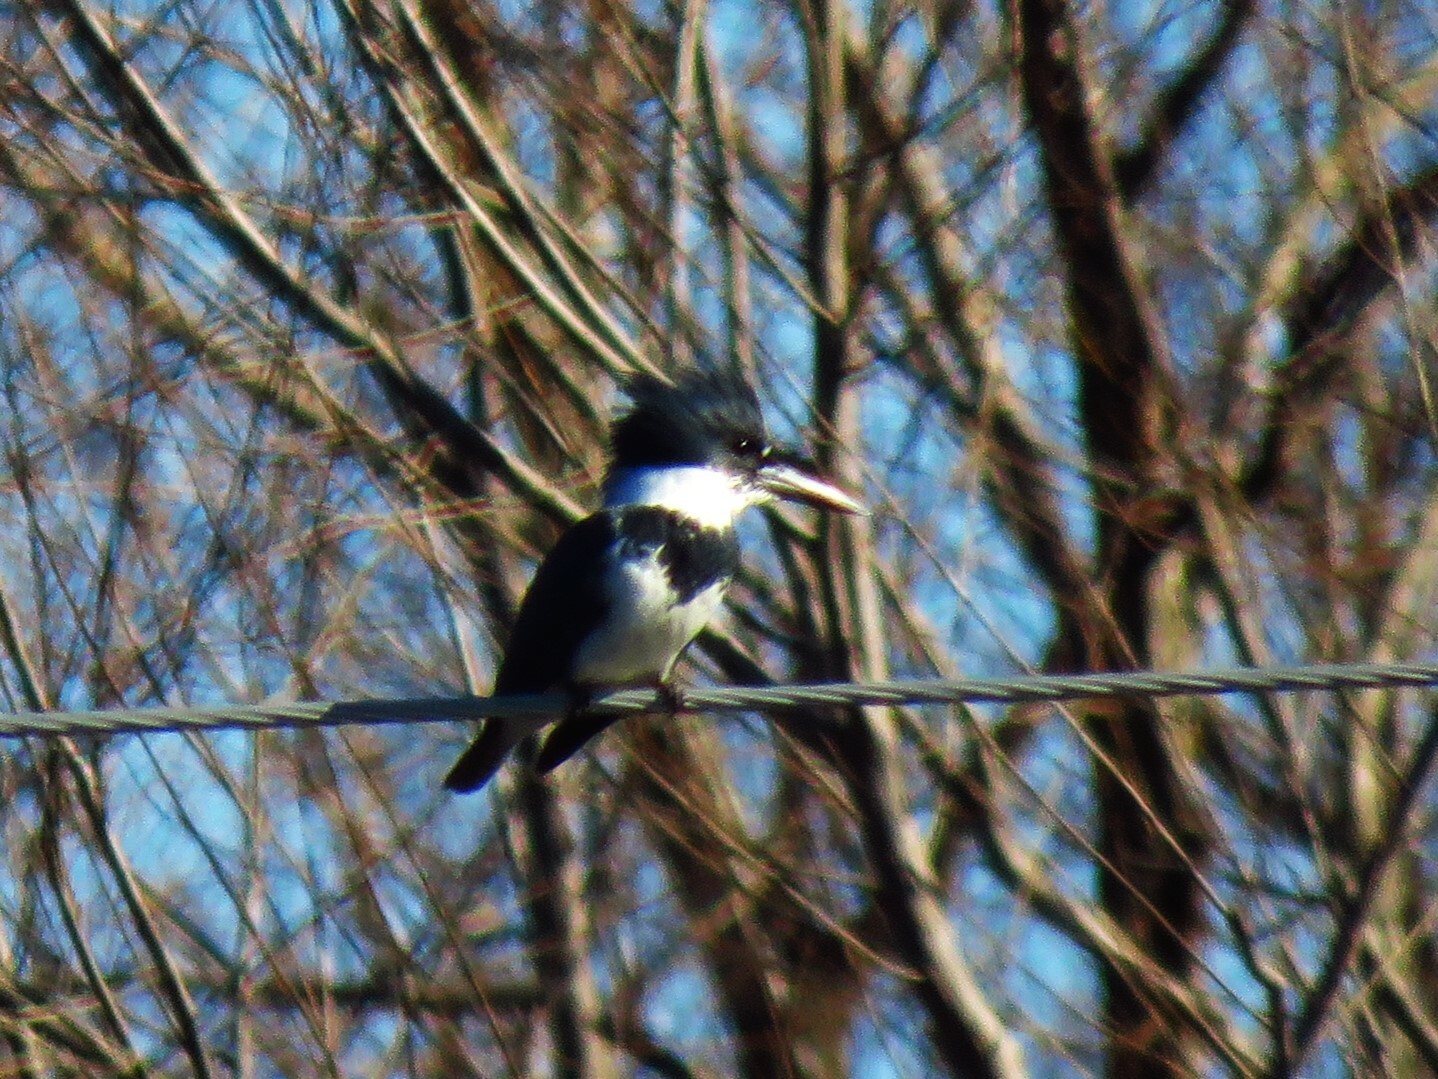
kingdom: Animalia
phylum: Chordata
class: Aves
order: Coraciiformes
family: Alcedinidae
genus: Megaceryle
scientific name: Megaceryle alcyon
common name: Belted kingfisher
